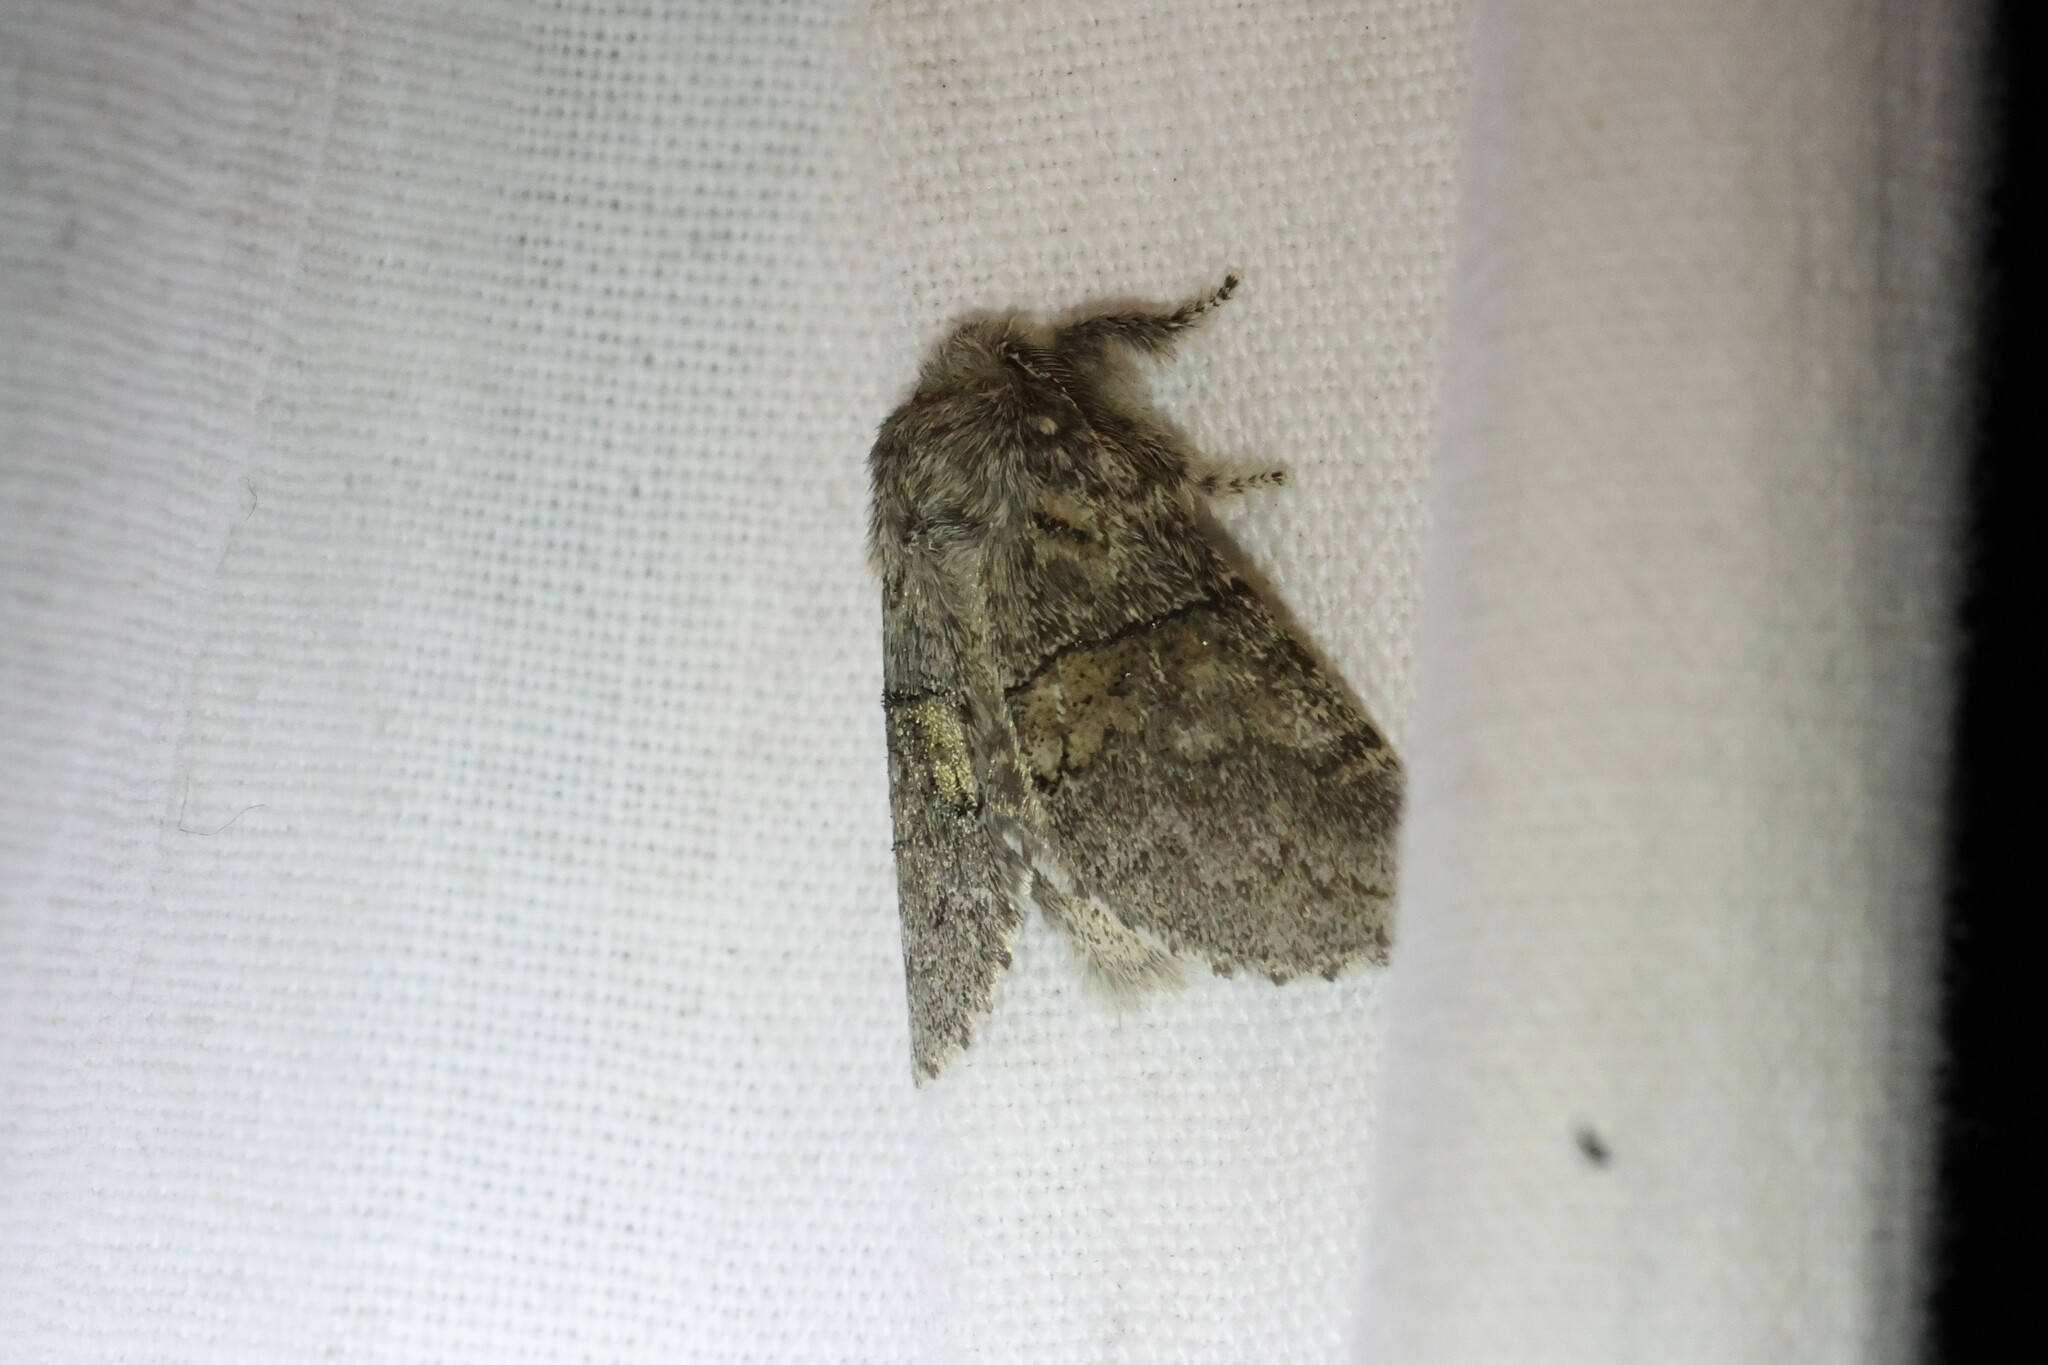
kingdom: Animalia
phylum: Arthropoda
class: Insecta
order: Lepidoptera
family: Notodontidae
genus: Gluphisia
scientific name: Gluphisia septentrionis
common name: Common gluphisia
